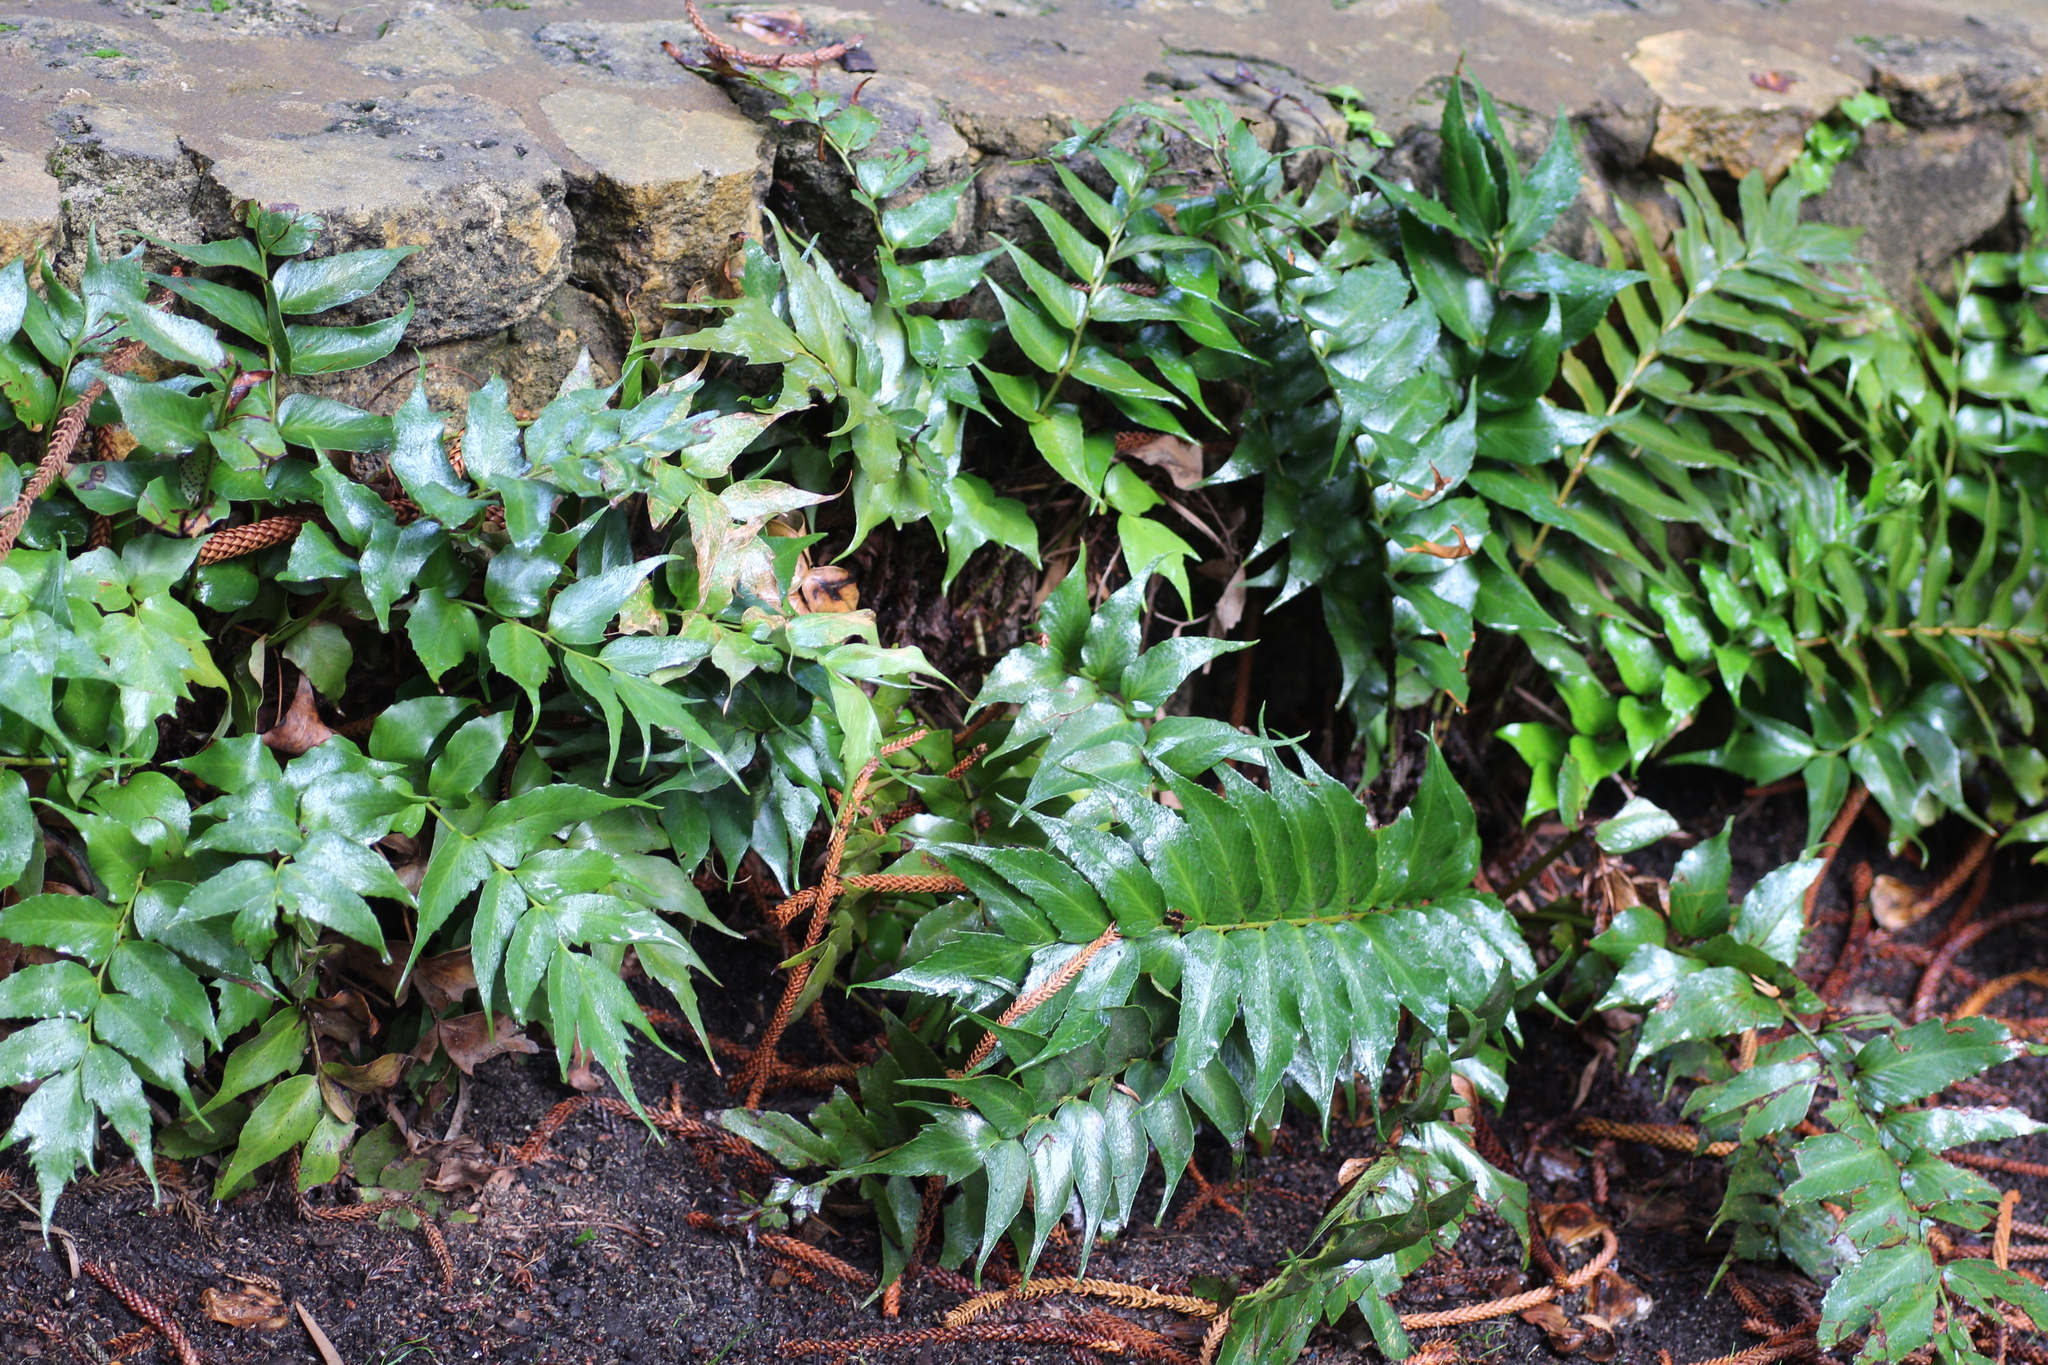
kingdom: Plantae
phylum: Tracheophyta
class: Polypodiopsida
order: Polypodiales
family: Dryopteridaceae
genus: Cyrtomium
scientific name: Cyrtomium falcatum
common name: House holly-fern
